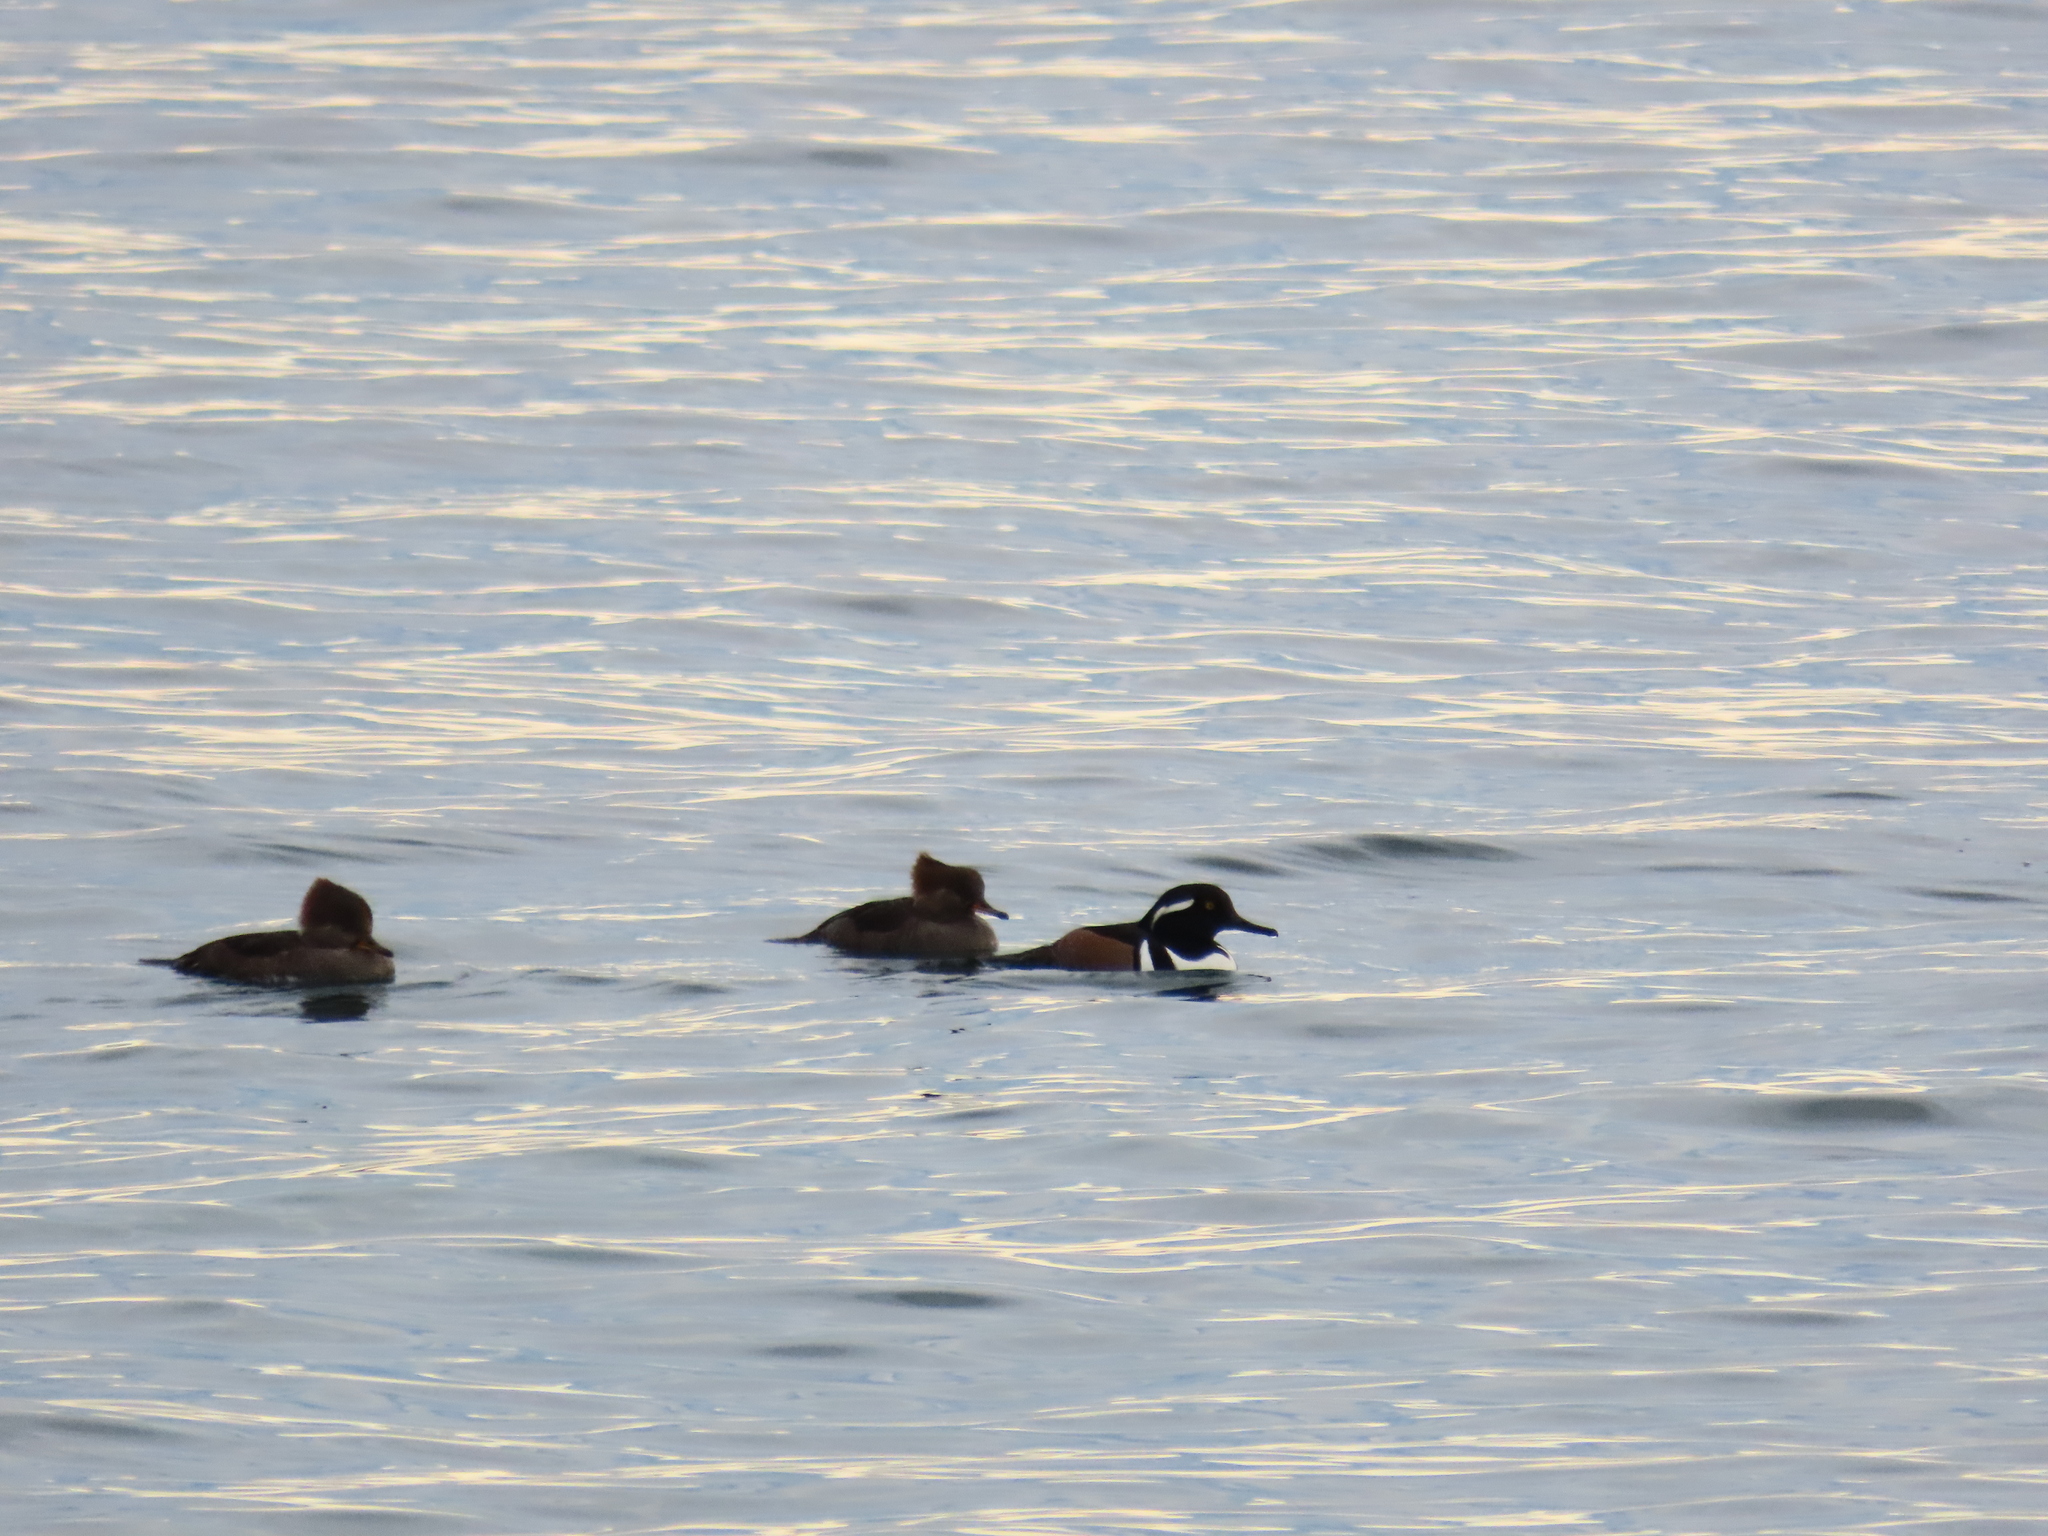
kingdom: Animalia
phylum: Chordata
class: Aves
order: Anseriformes
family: Anatidae
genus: Lophodytes
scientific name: Lophodytes cucullatus
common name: Hooded merganser
